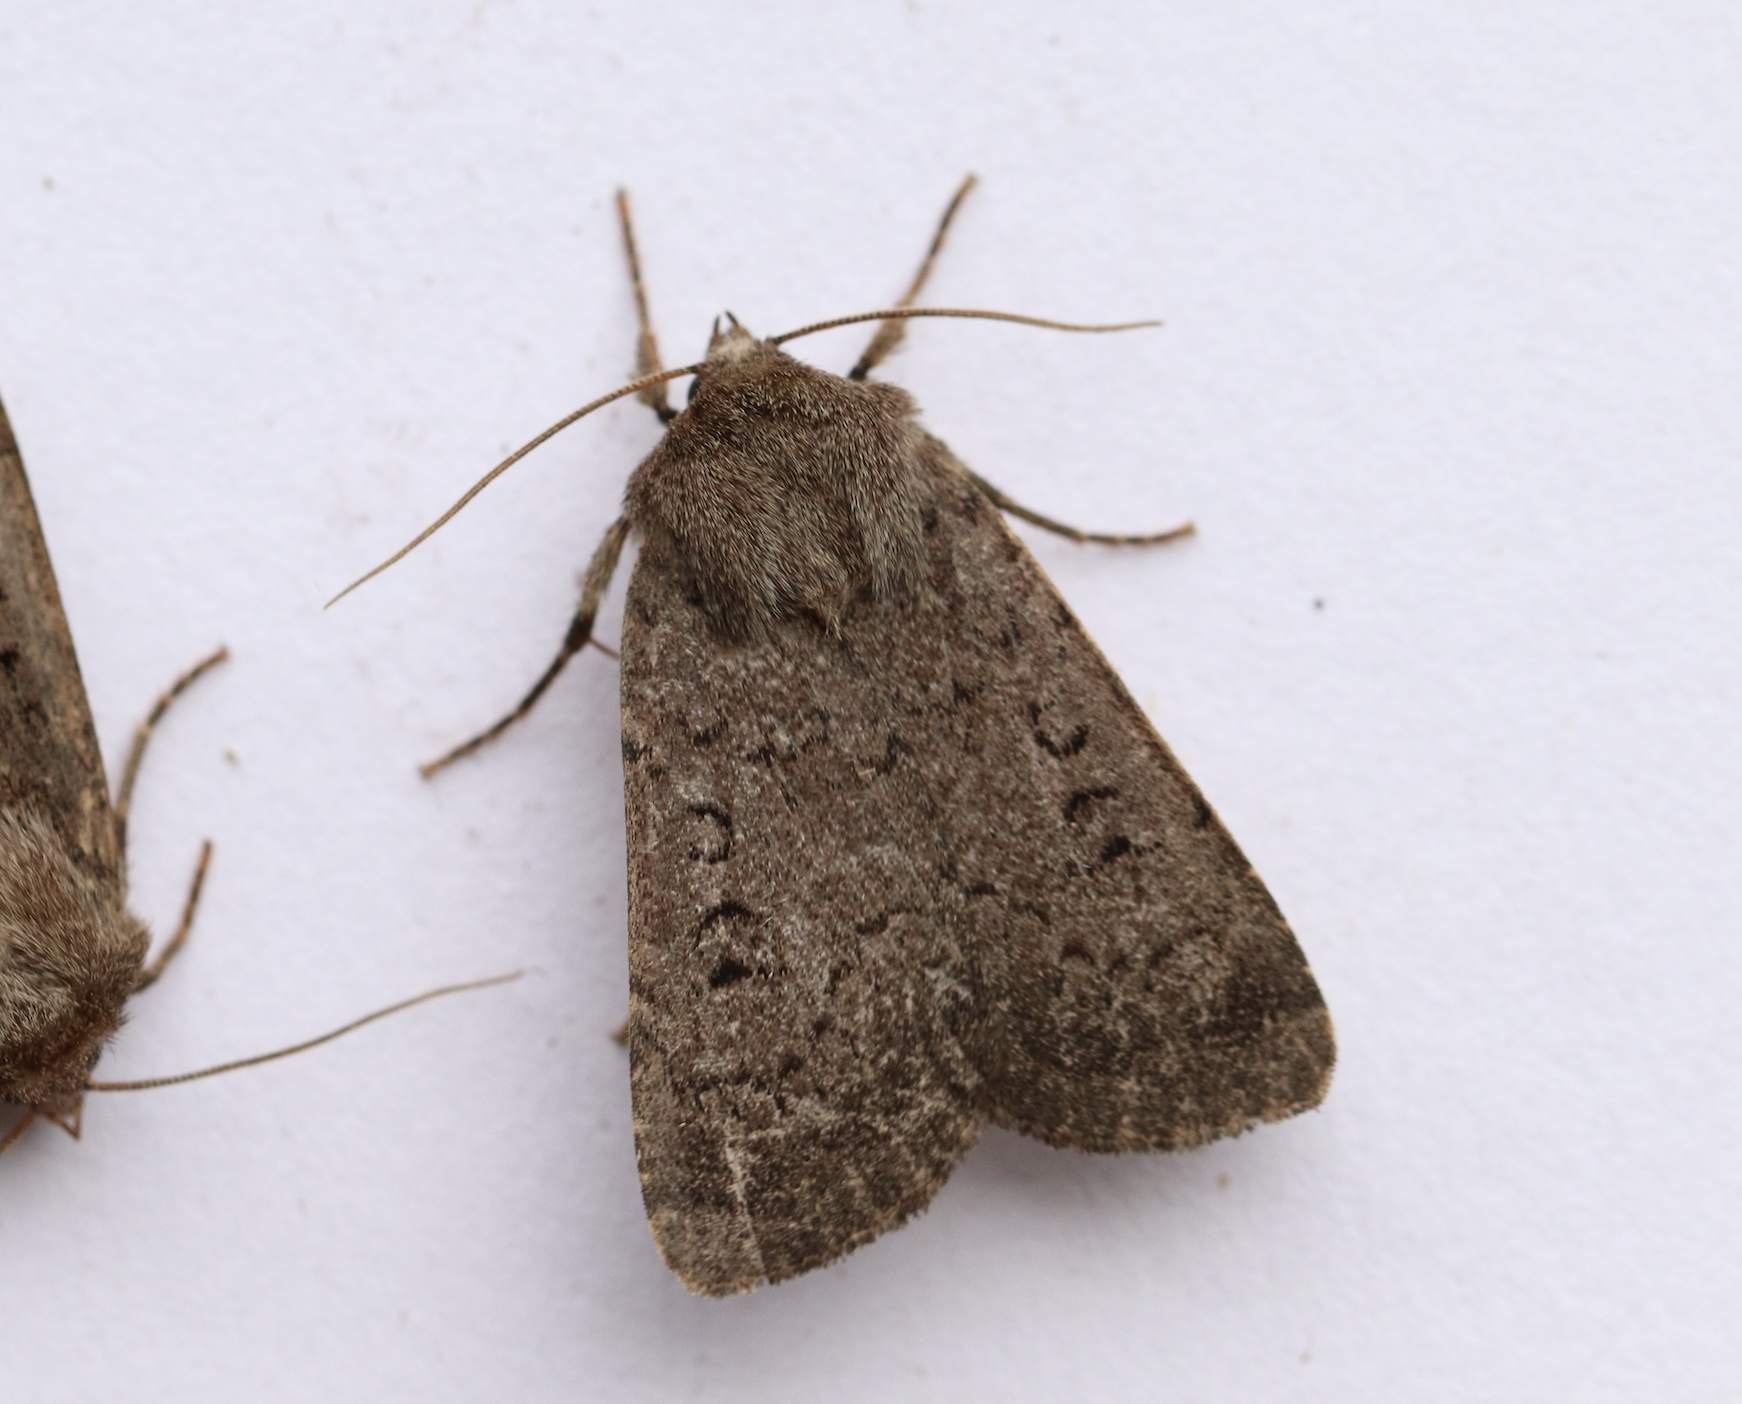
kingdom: Animalia
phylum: Arthropoda
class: Insecta
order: Lepidoptera
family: Noctuidae
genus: Graphiphora
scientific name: Graphiphora augur
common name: Double dart
